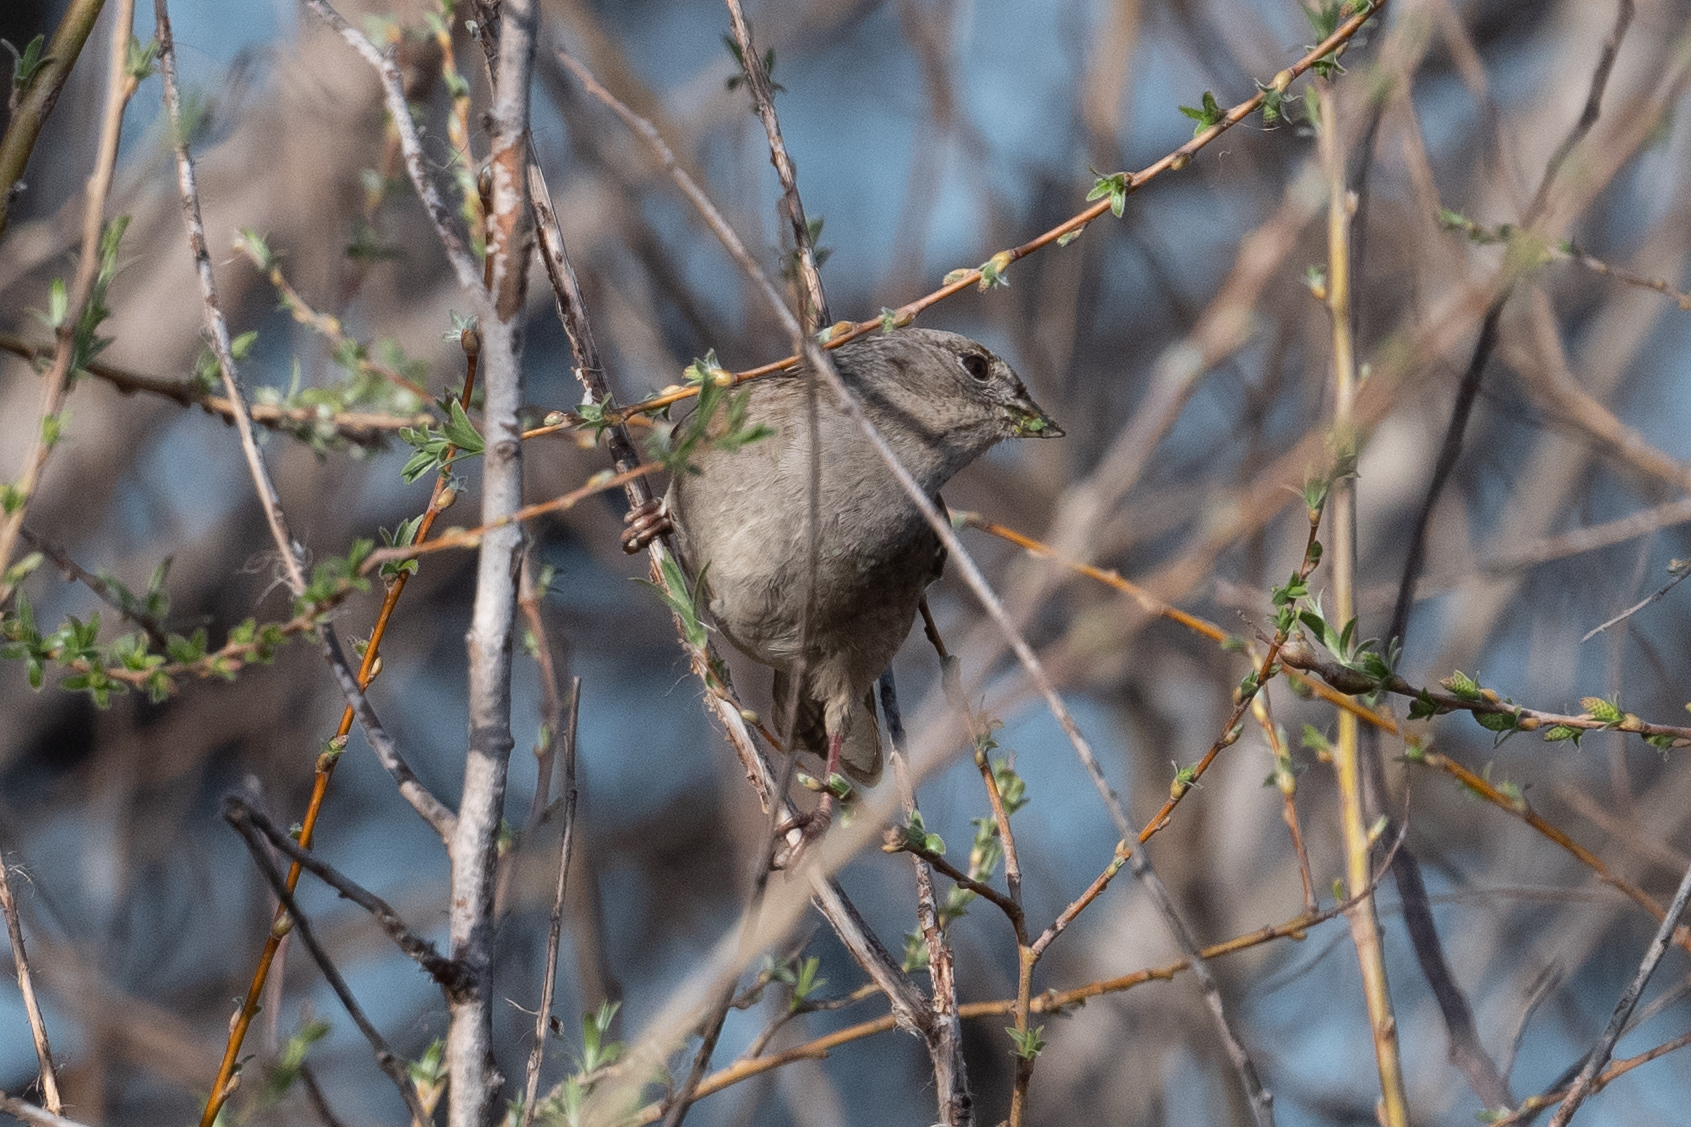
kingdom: Animalia
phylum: Chordata
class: Aves
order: Passeriformes
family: Passerellidae
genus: Zonotrichia
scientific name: Zonotrichia atricapilla
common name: Golden-crowned sparrow
